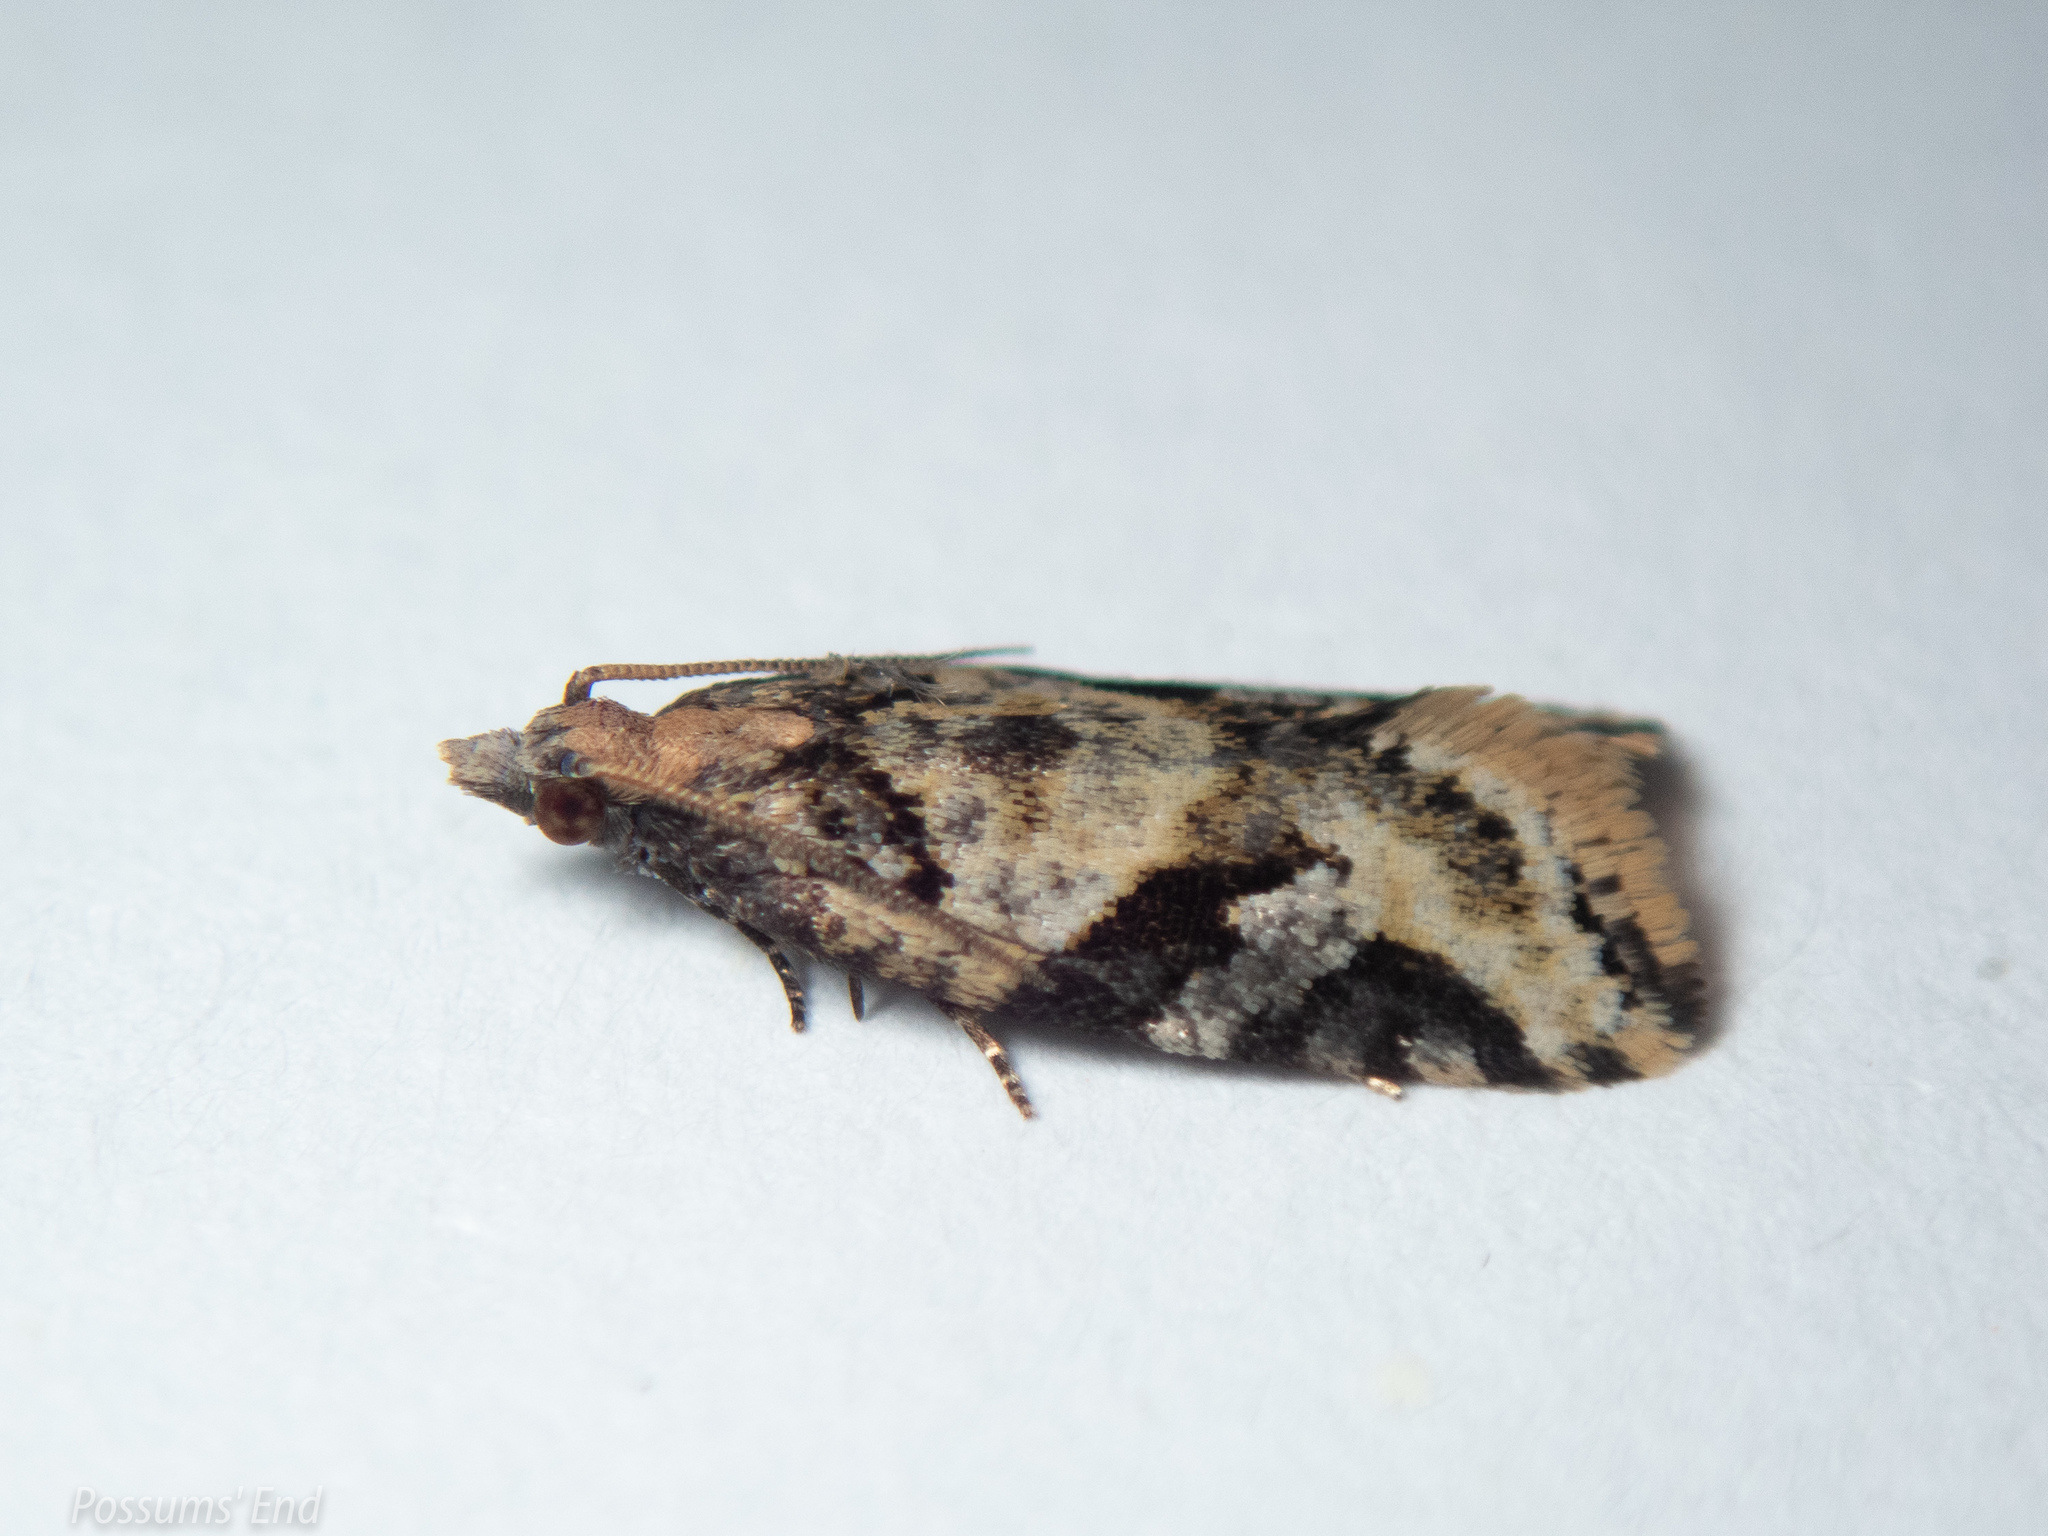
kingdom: Animalia
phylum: Arthropoda
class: Insecta
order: Lepidoptera
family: Tortricidae
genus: Capua
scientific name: Capua semiferana
